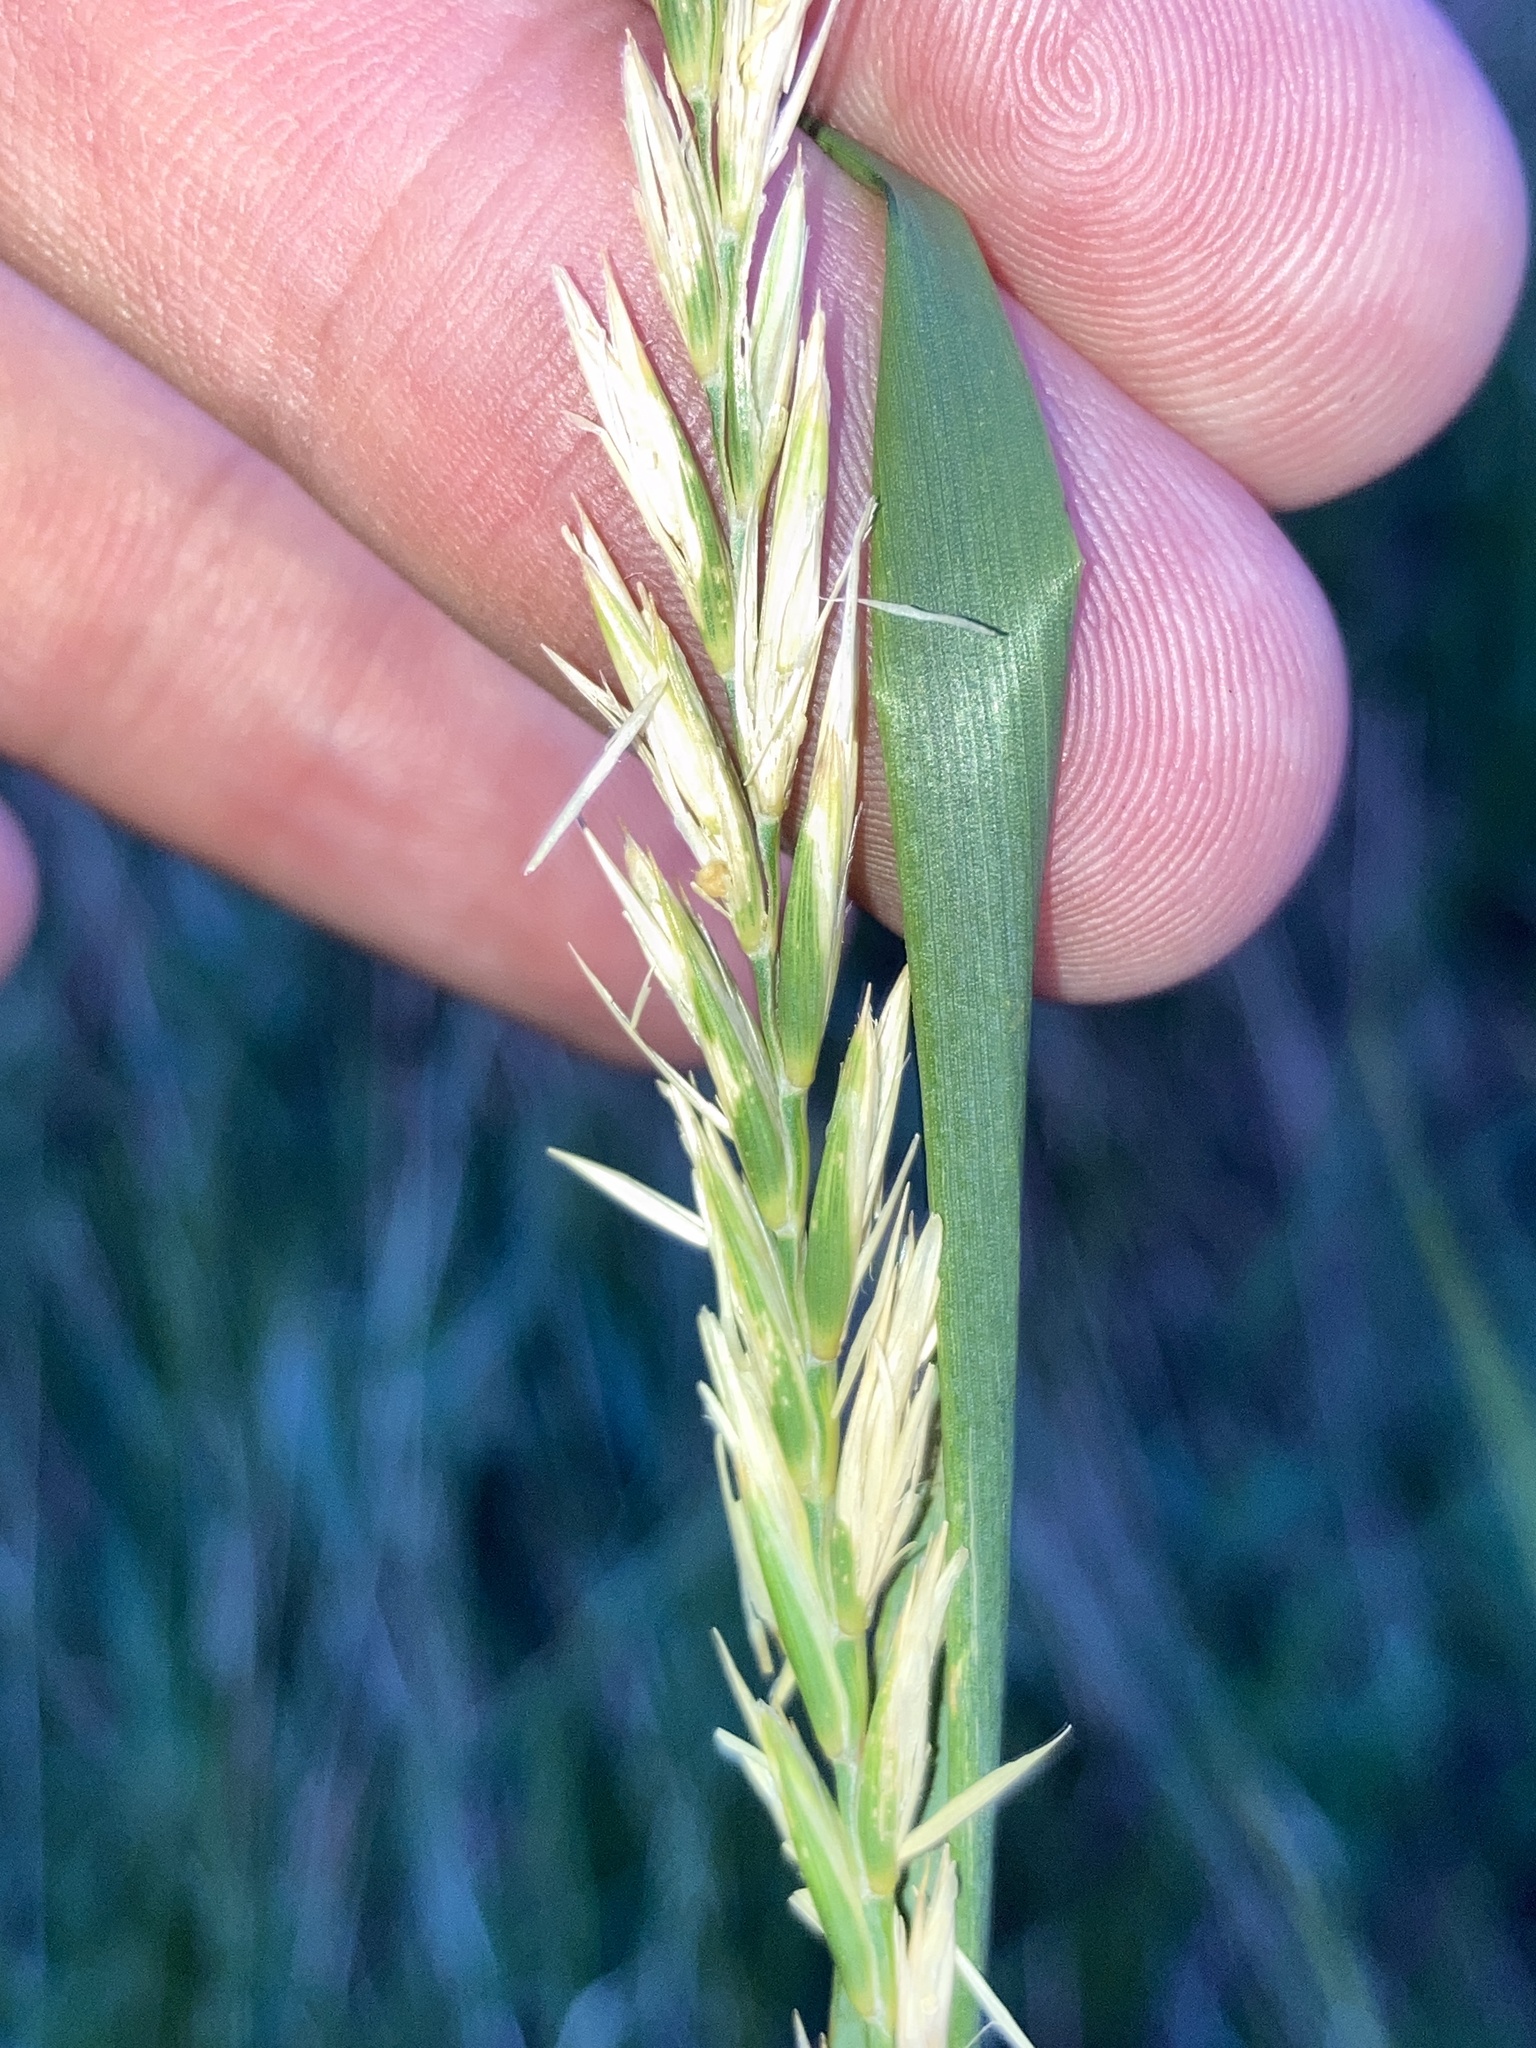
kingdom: Plantae
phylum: Tracheophyta
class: Liliopsida
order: Poales
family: Poaceae
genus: Elymus
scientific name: Elymus repens
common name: Quackgrass
